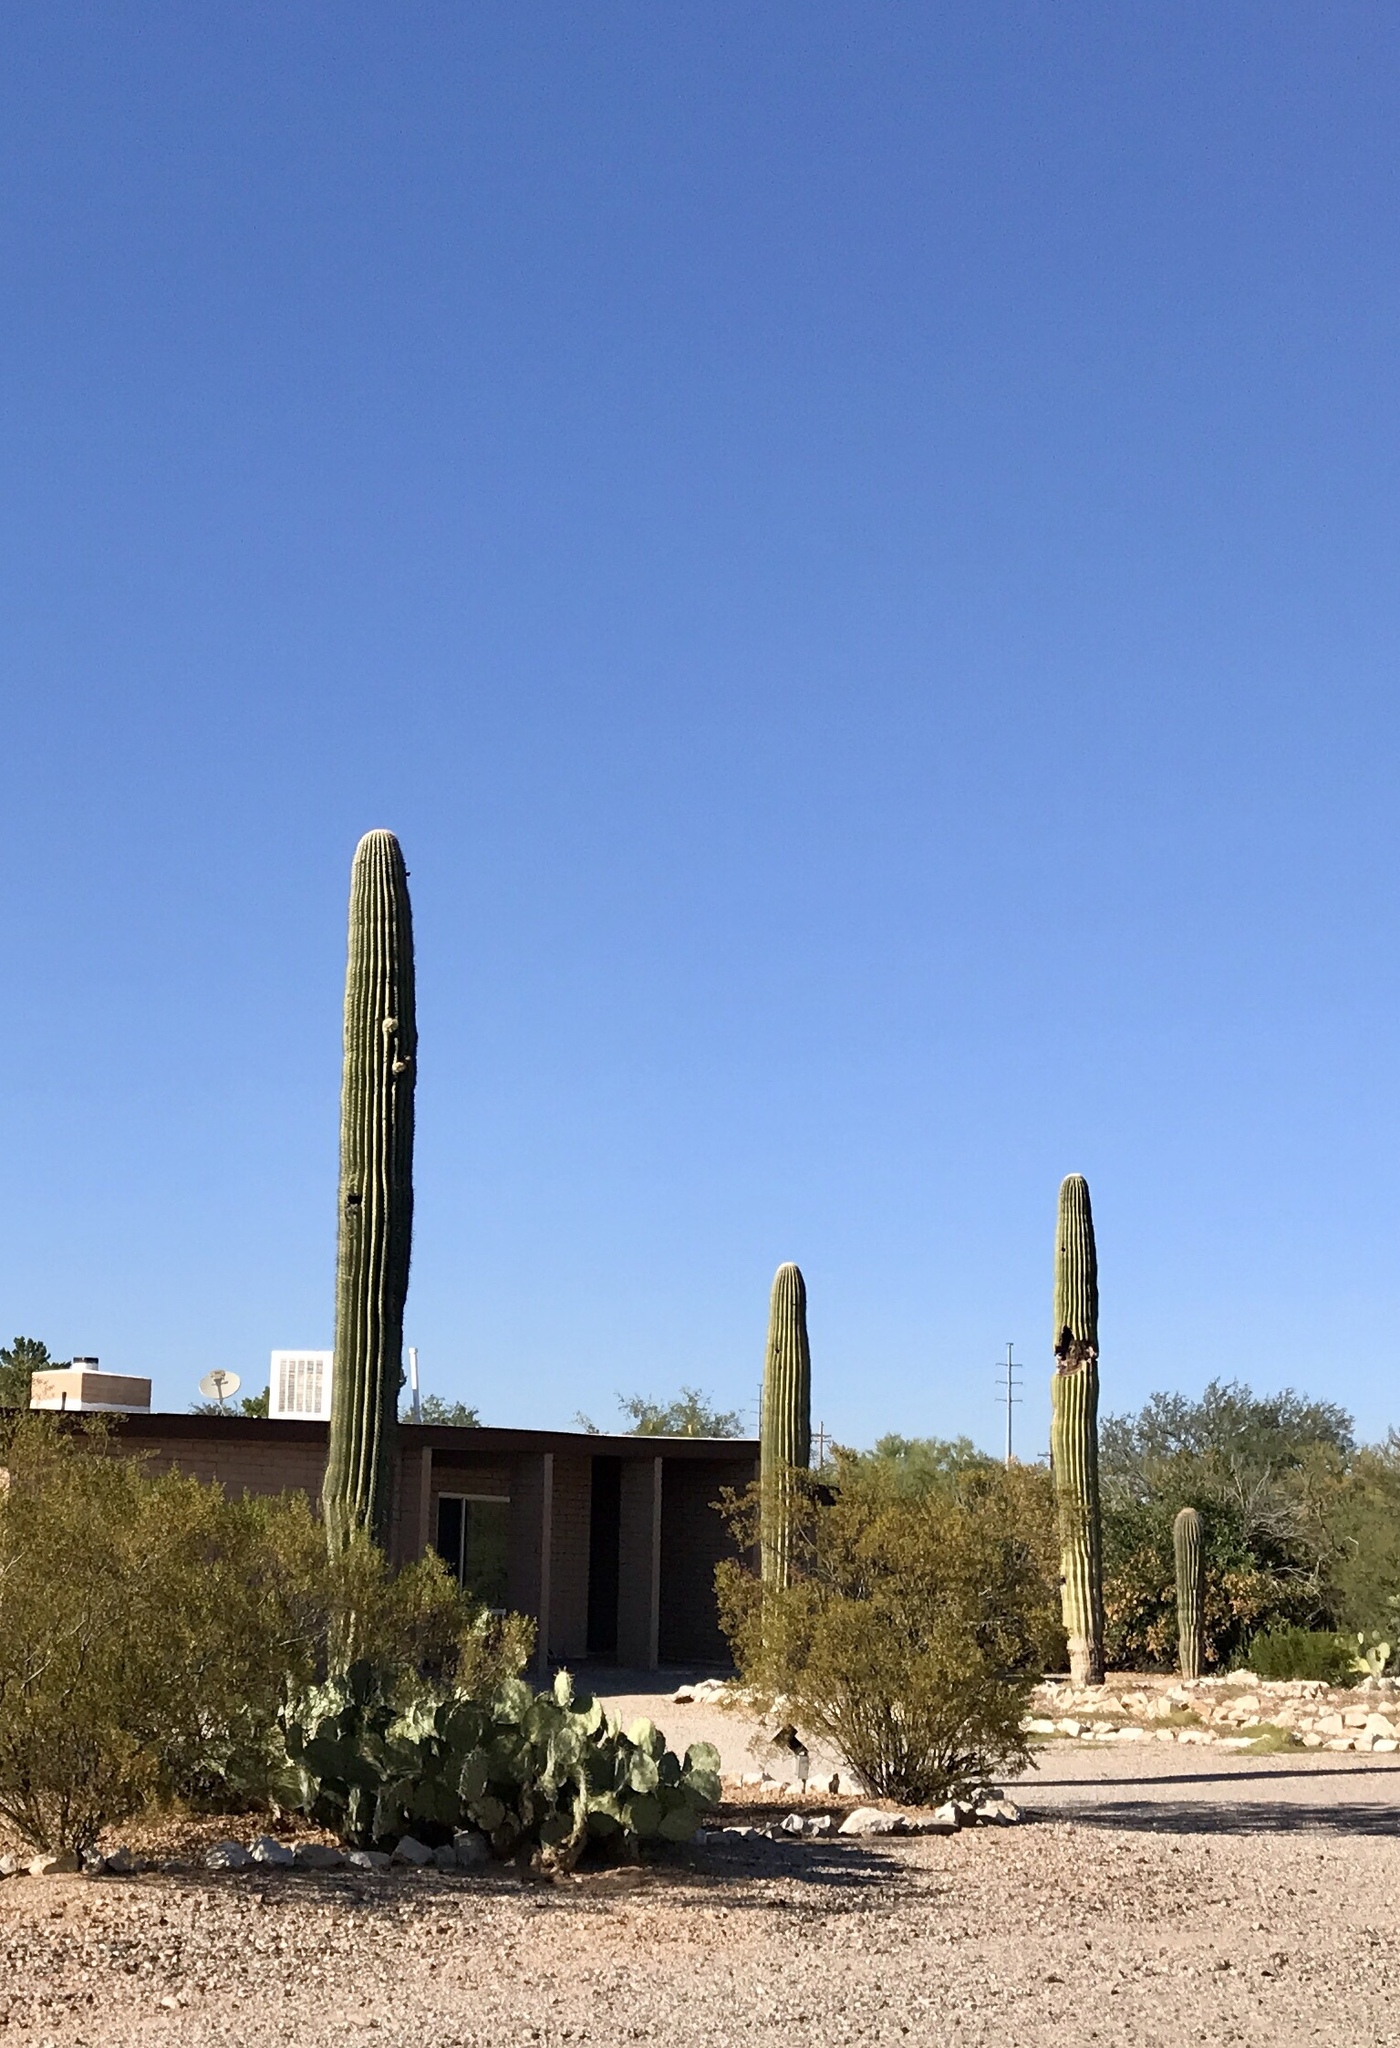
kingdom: Plantae
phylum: Tracheophyta
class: Magnoliopsida
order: Caryophyllales
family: Cactaceae
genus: Carnegiea
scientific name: Carnegiea gigantea
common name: Saguaro
